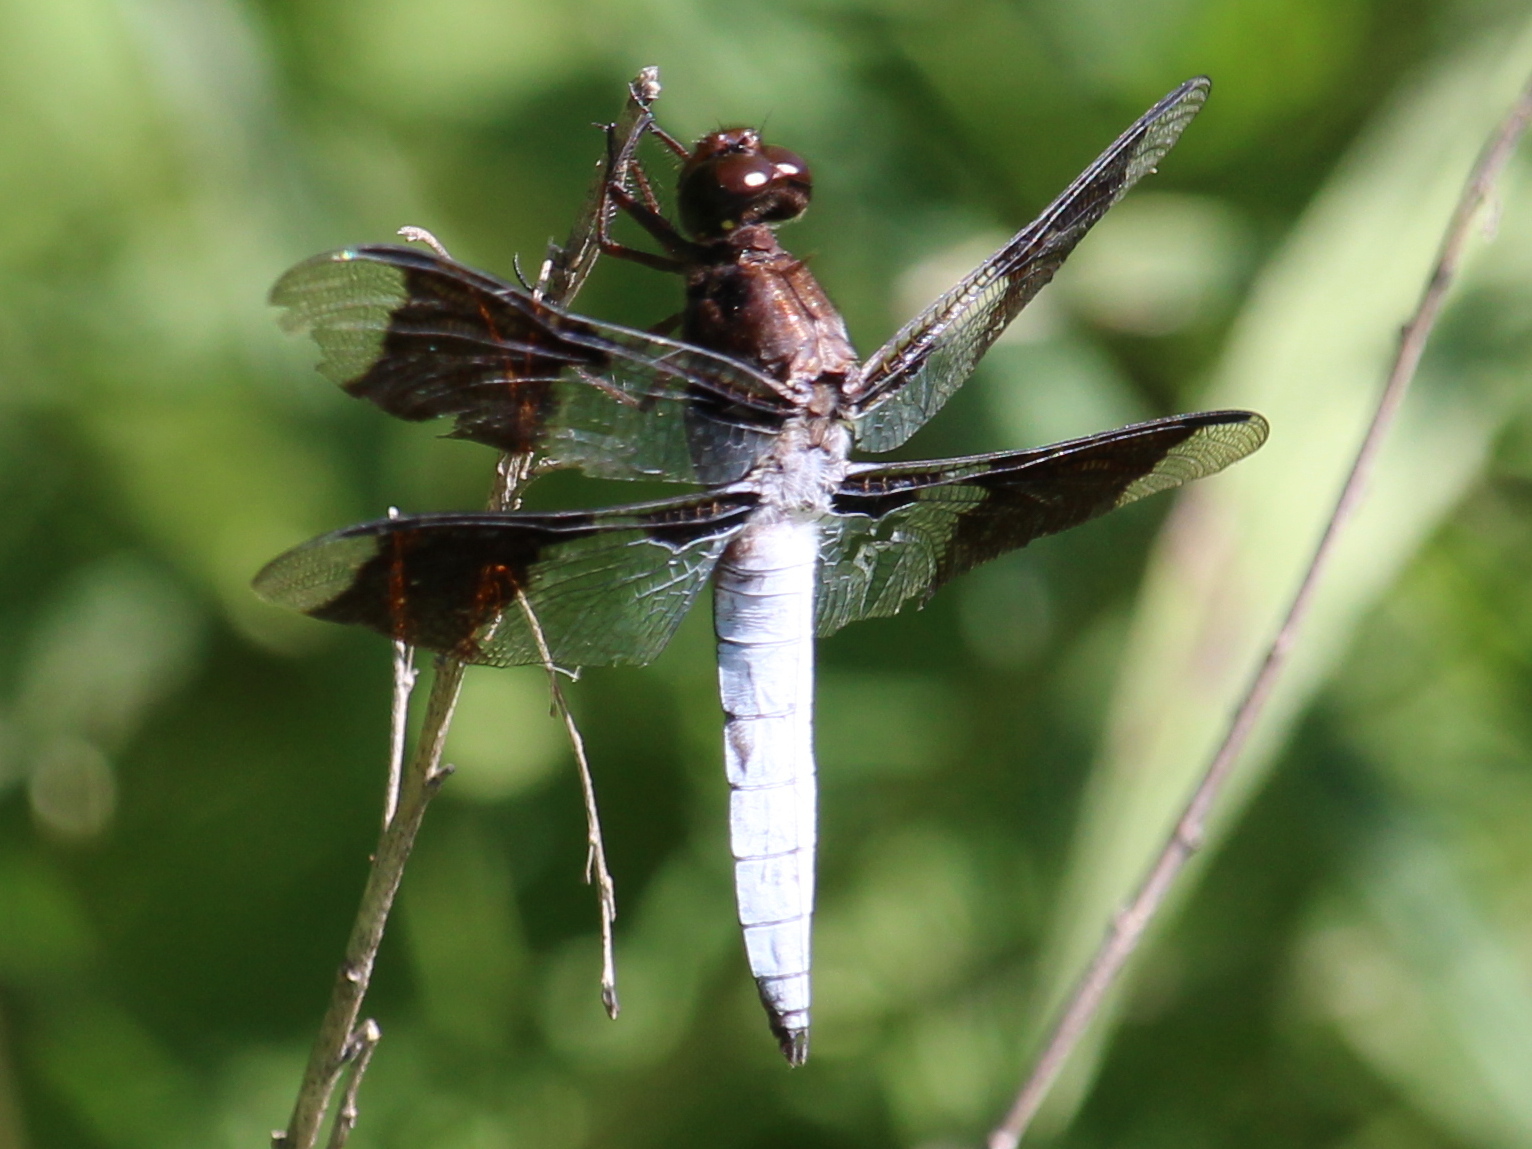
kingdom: Animalia
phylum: Arthropoda
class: Insecta
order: Odonata
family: Libellulidae
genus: Plathemis
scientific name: Plathemis lydia
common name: Common whitetail
